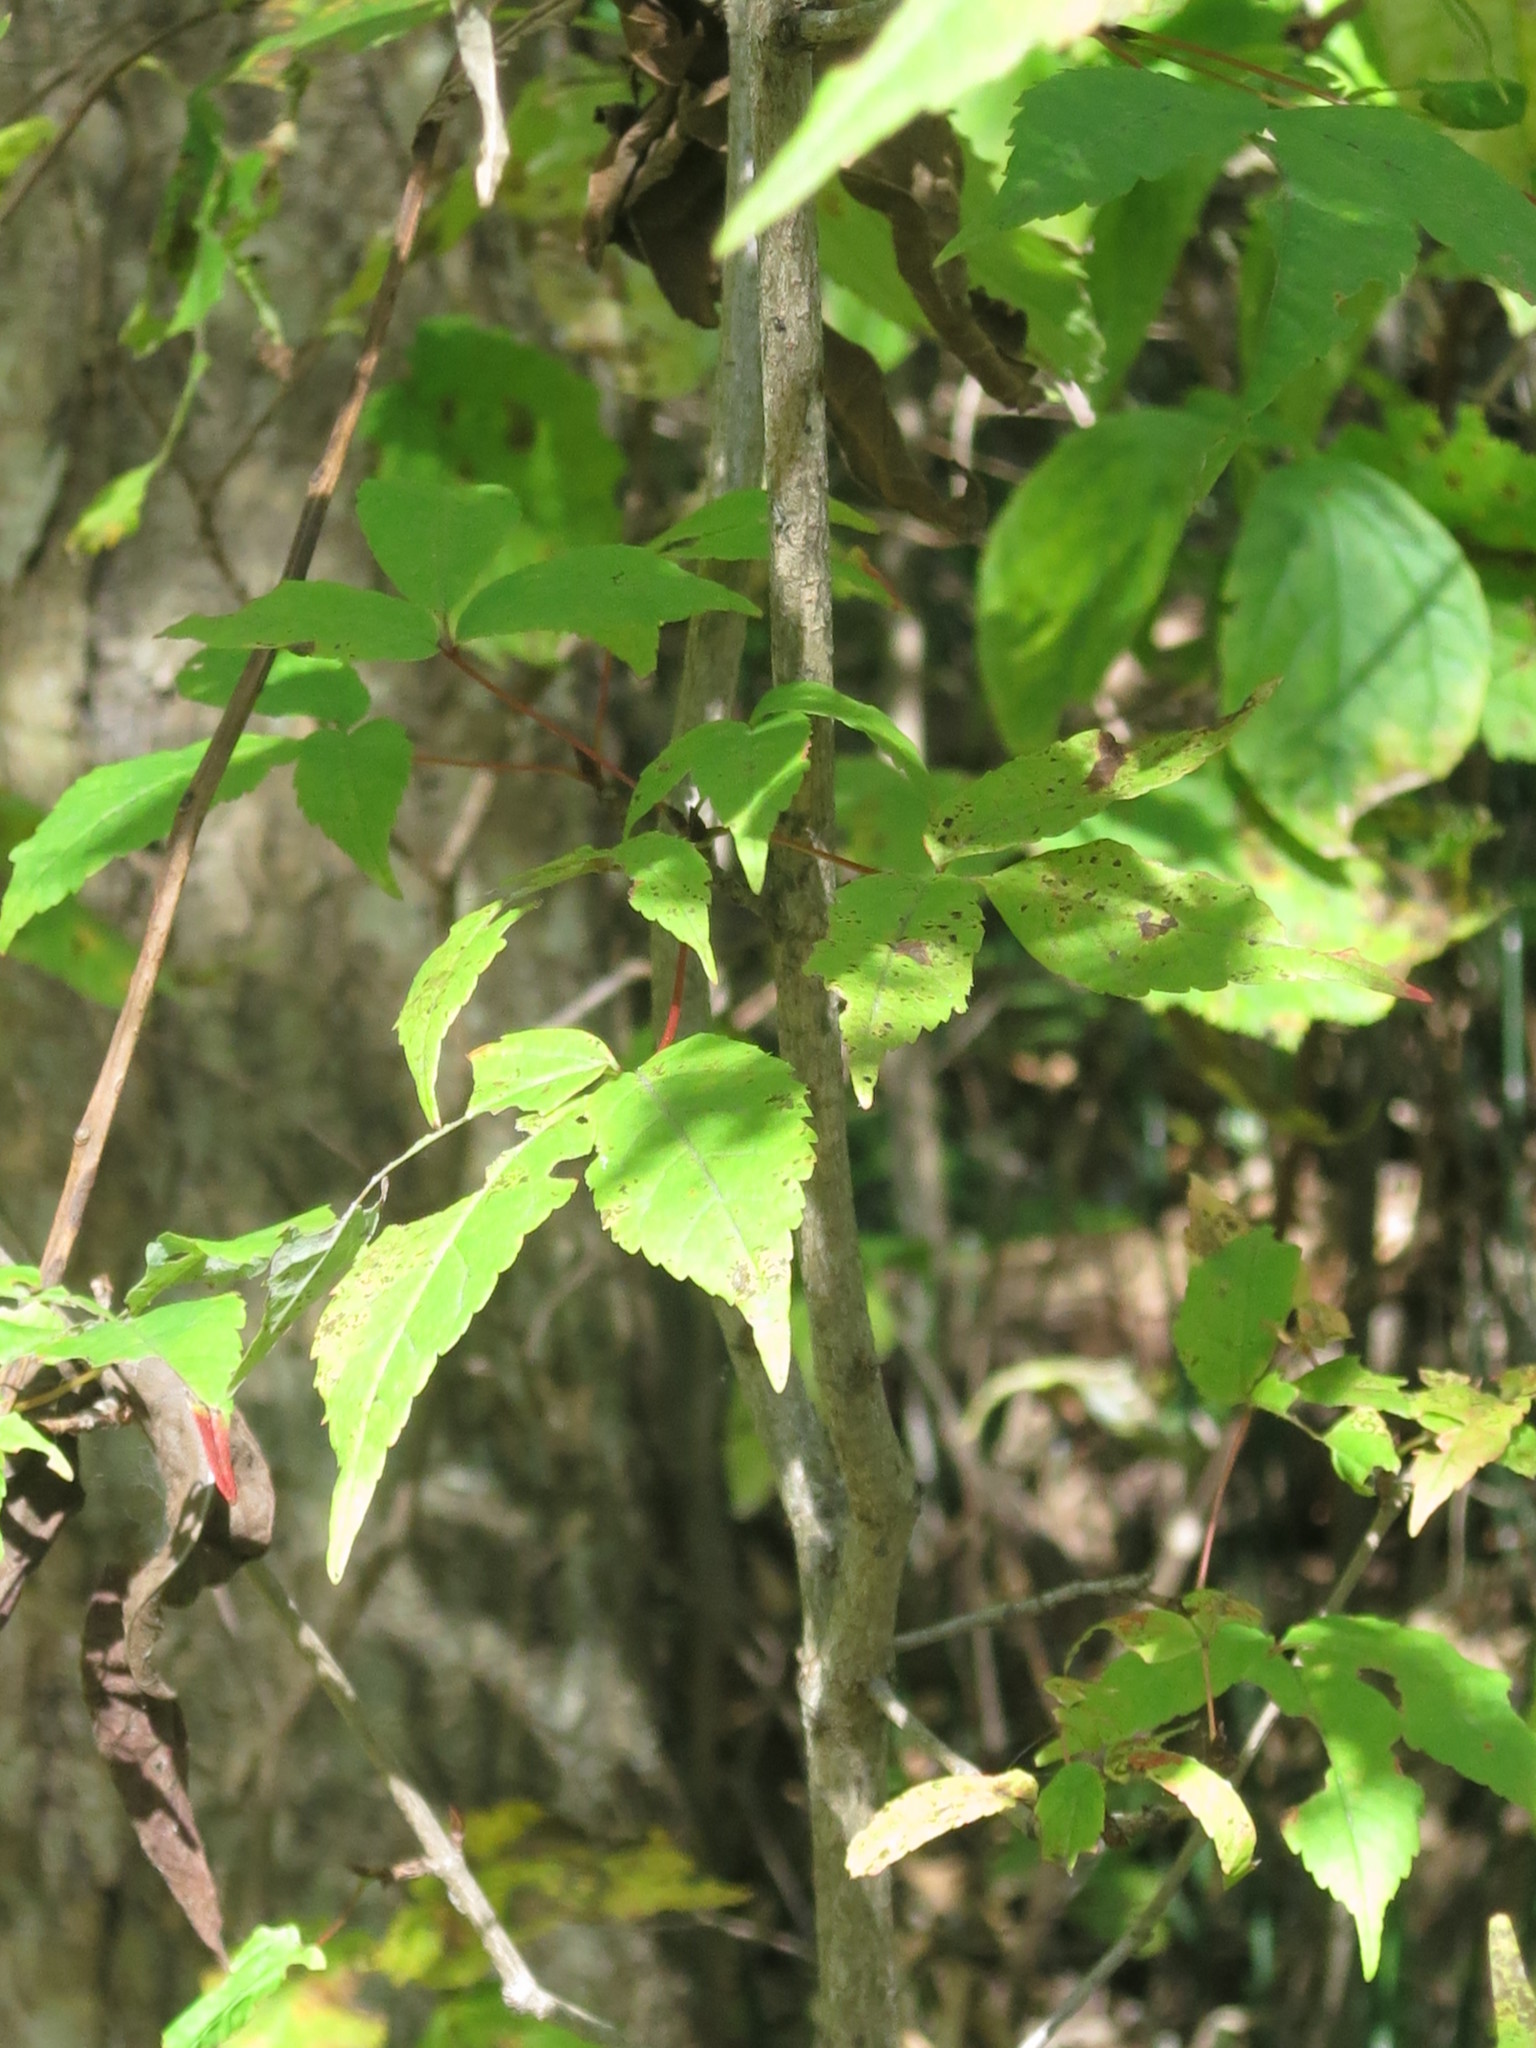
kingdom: Plantae
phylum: Tracheophyta
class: Magnoliopsida
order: Sapindales
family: Sapindaceae
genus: Acer
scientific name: Acer mandshuricum
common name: Manchurian maple
